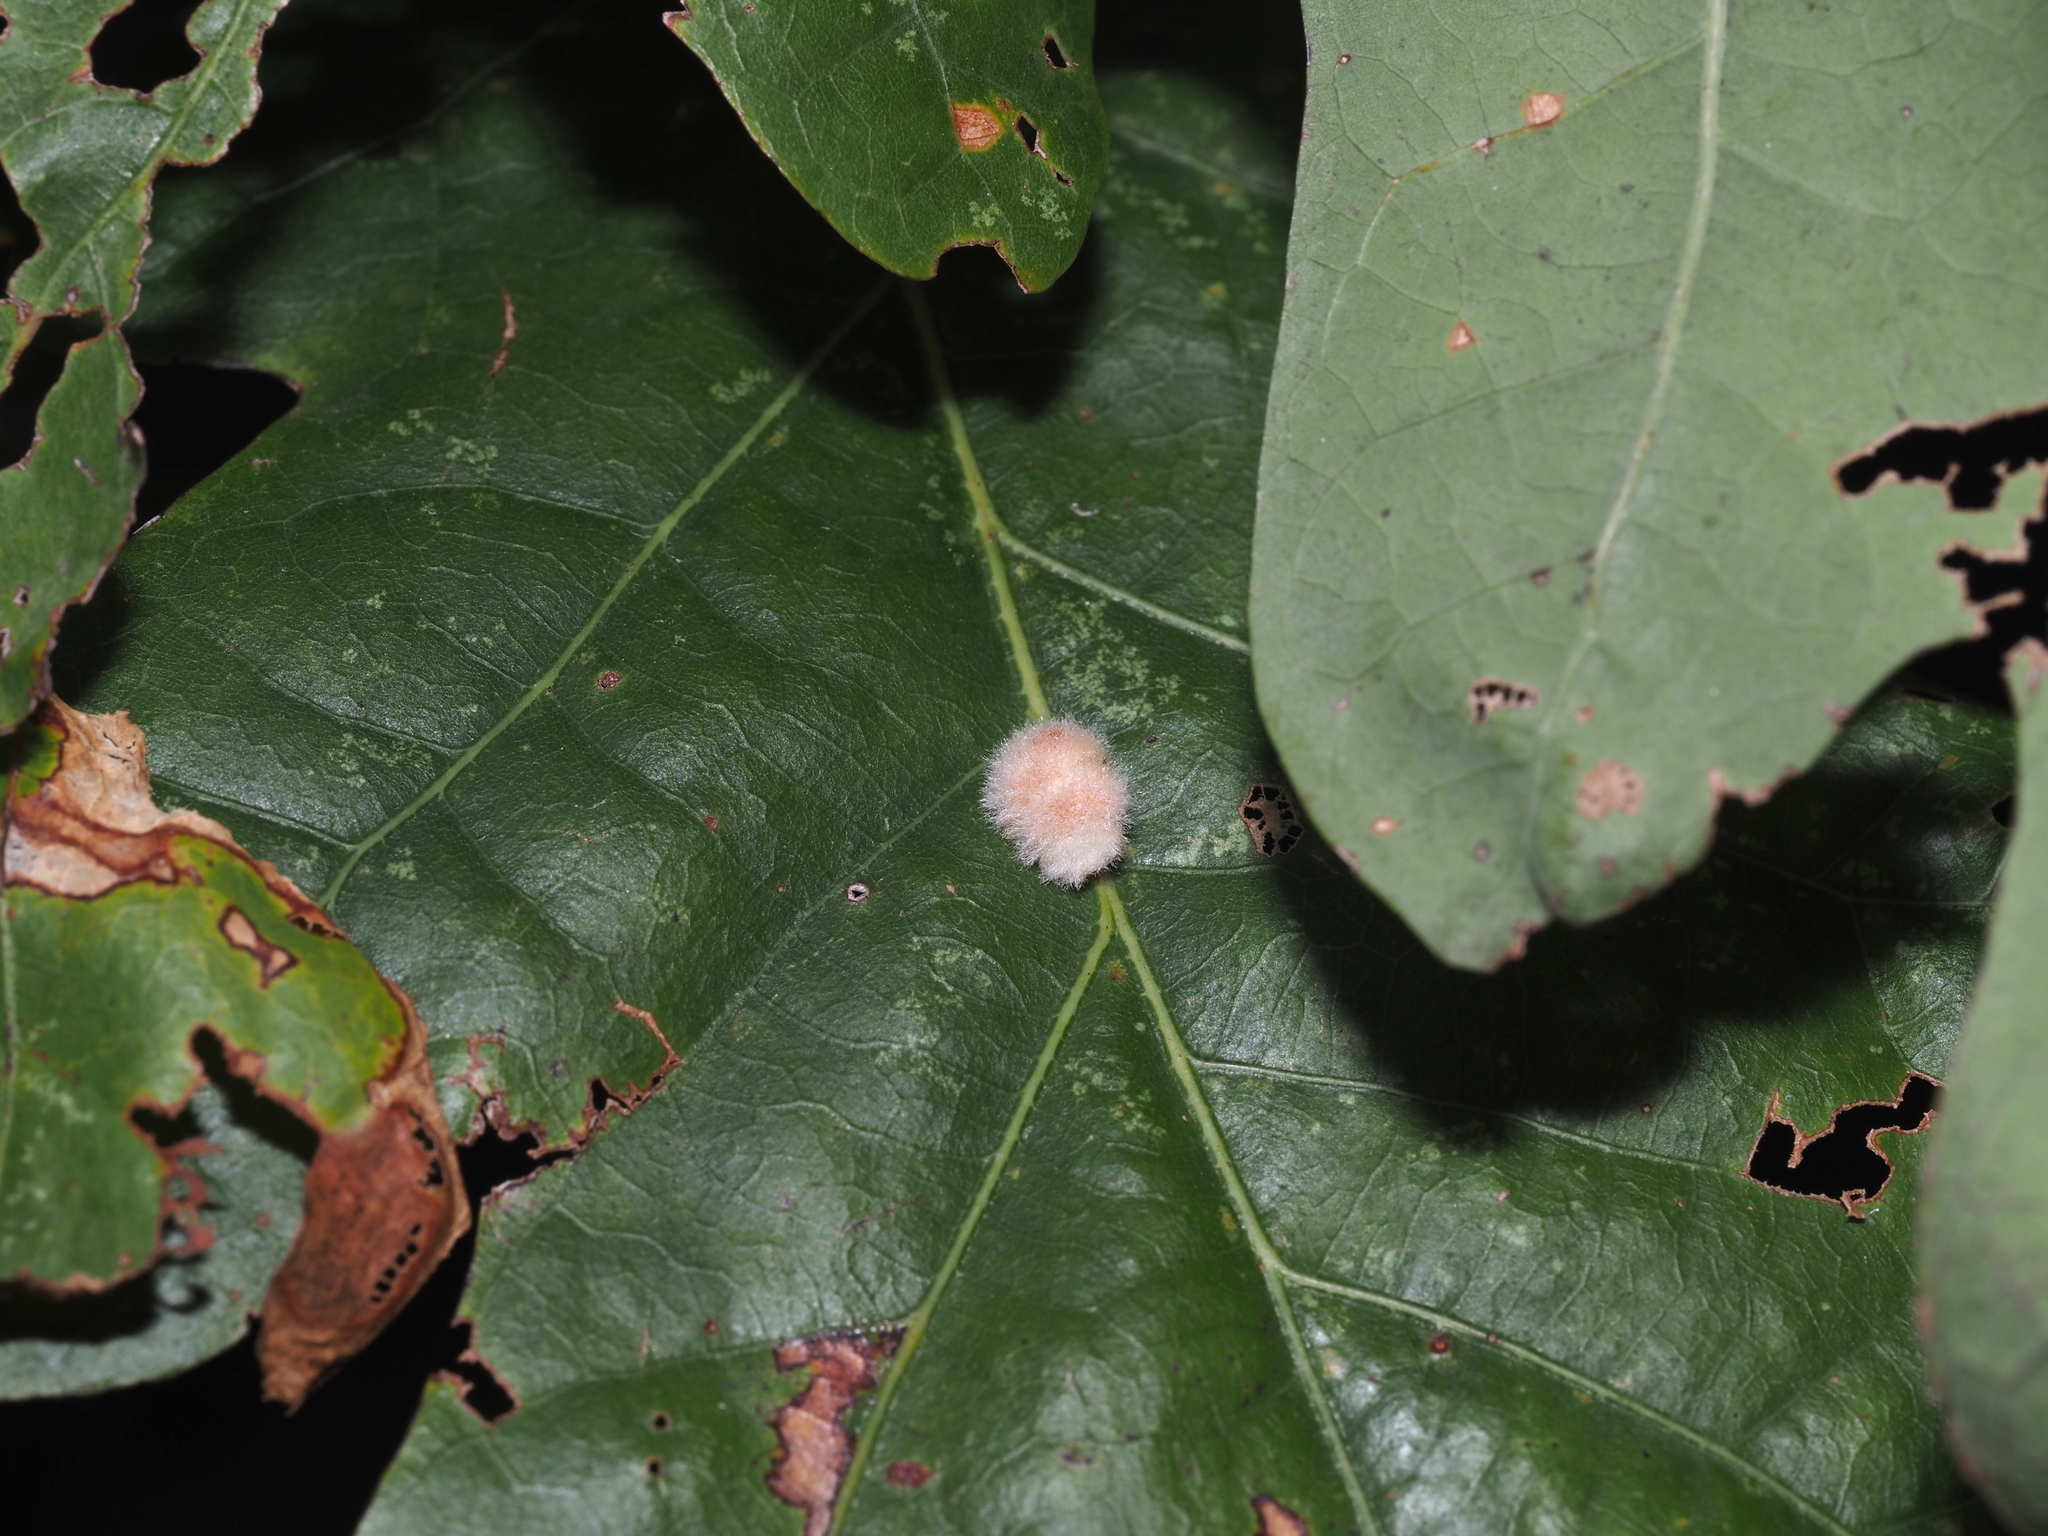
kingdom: Animalia
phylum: Arthropoda
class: Insecta
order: Hymenoptera
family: Cynipidae
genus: Andricus
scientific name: Andricus quercusflocci
